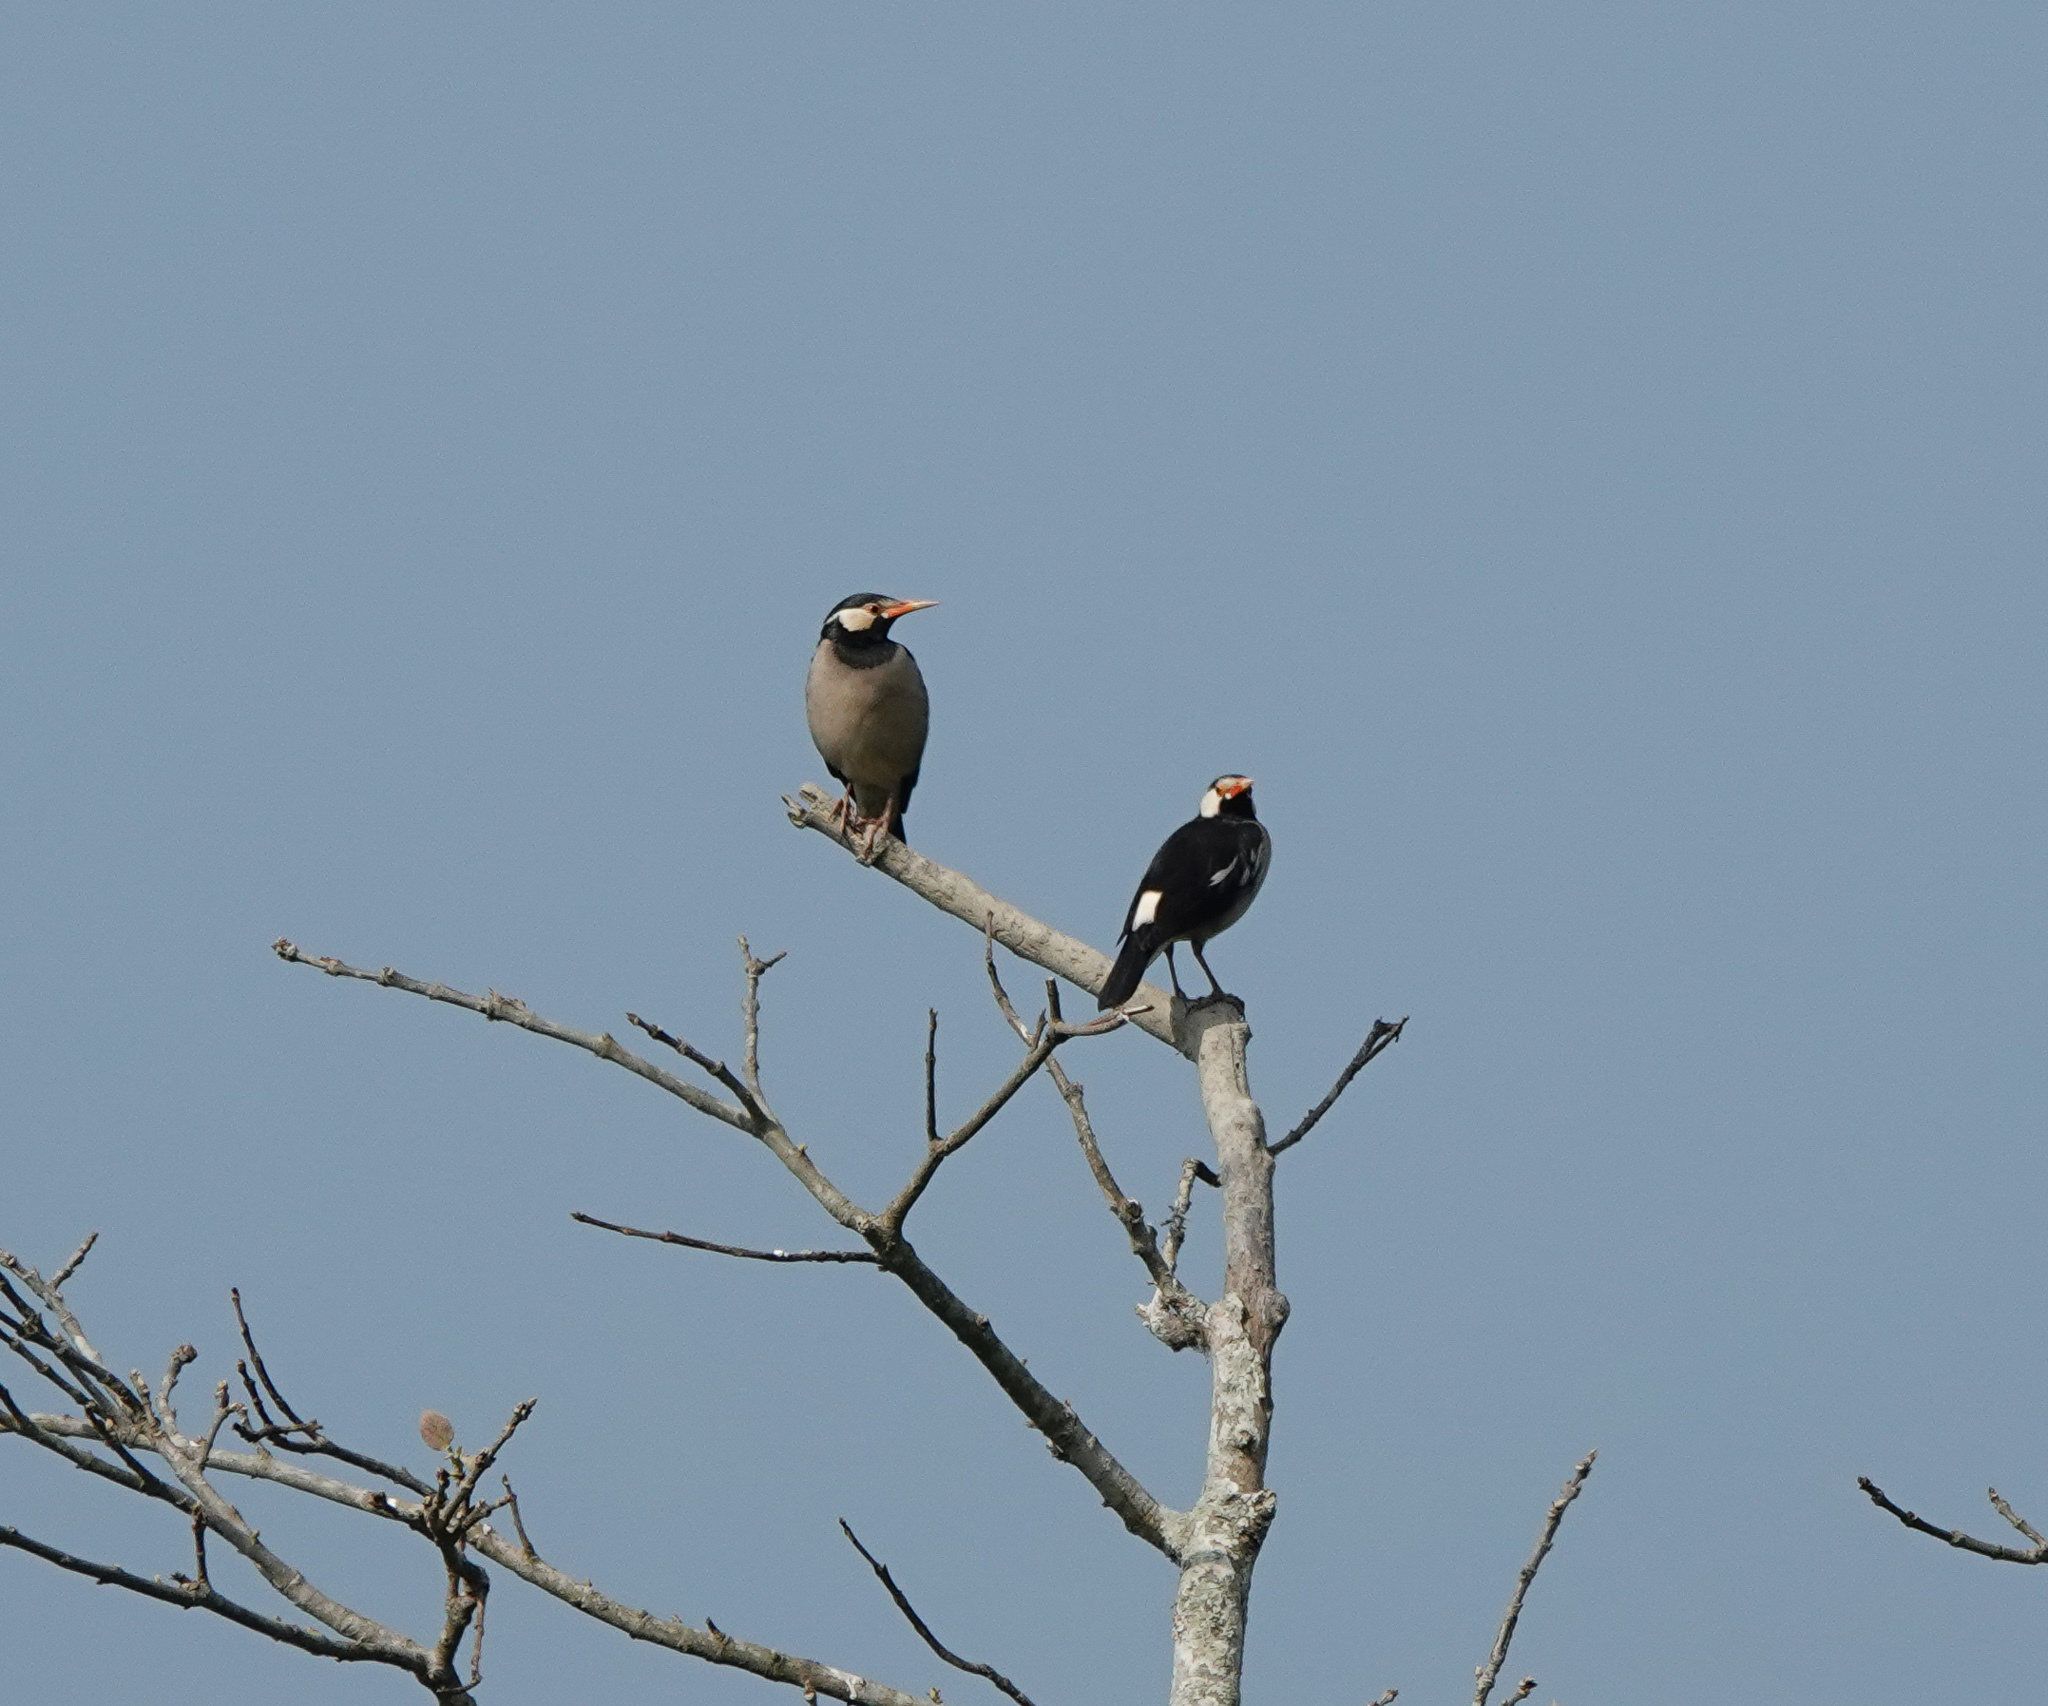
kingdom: Animalia
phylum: Chordata
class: Aves
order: Passeriformes
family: Sturnidae
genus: Gracupica
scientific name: Gracupica contra
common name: Pied myna
